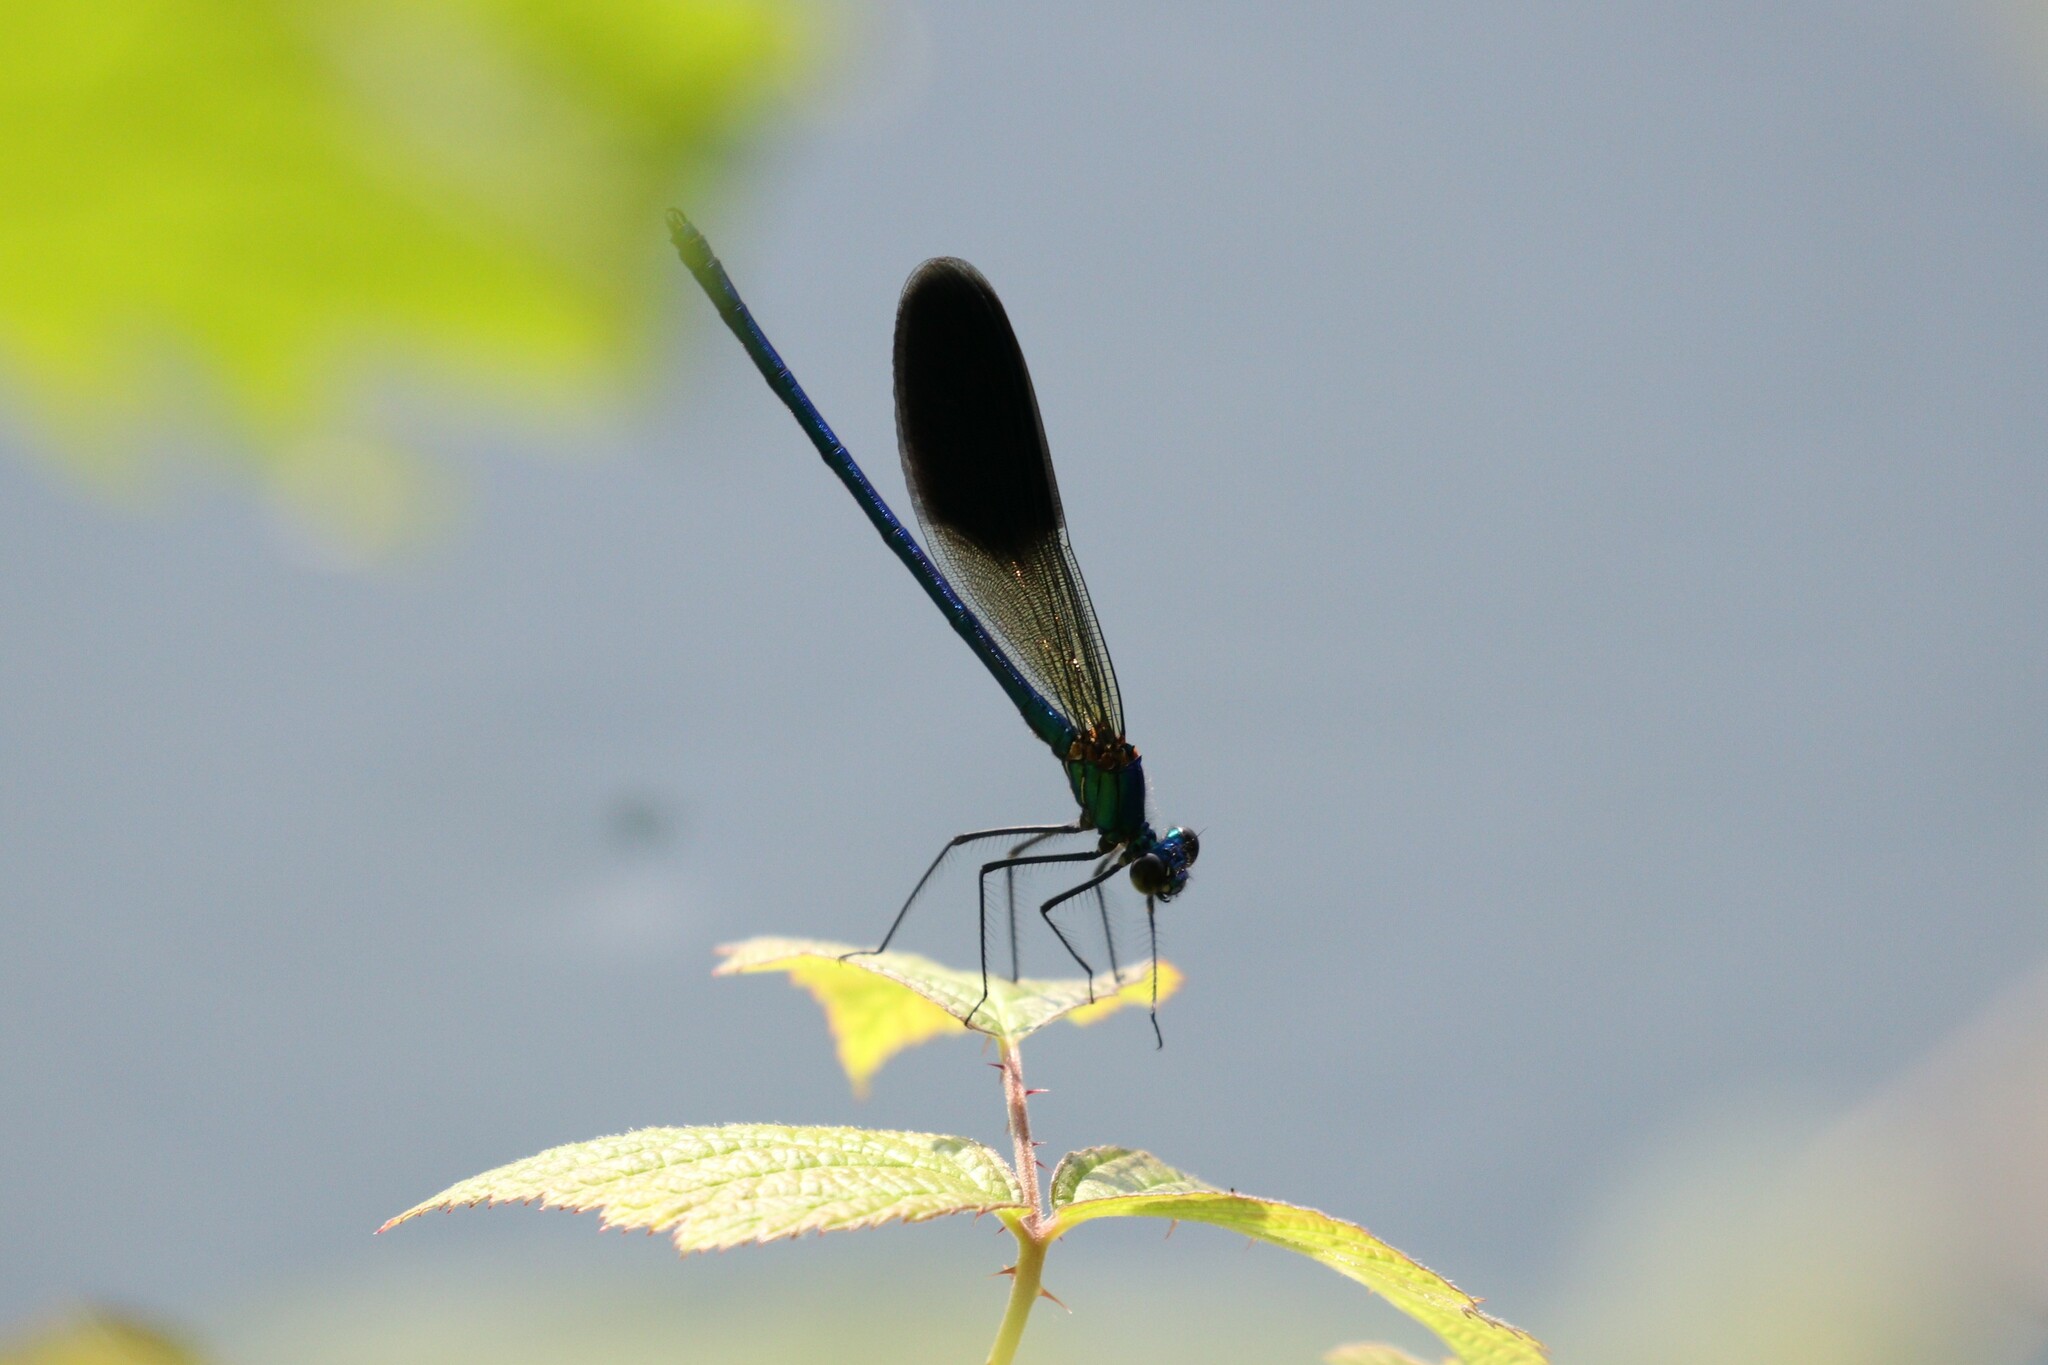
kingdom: Animalia
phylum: Arthropoda
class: Insecta
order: Odonata
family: Calopterygidae
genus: Calopteryx
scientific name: Calopteryx splendens
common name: Banded demoiselle
